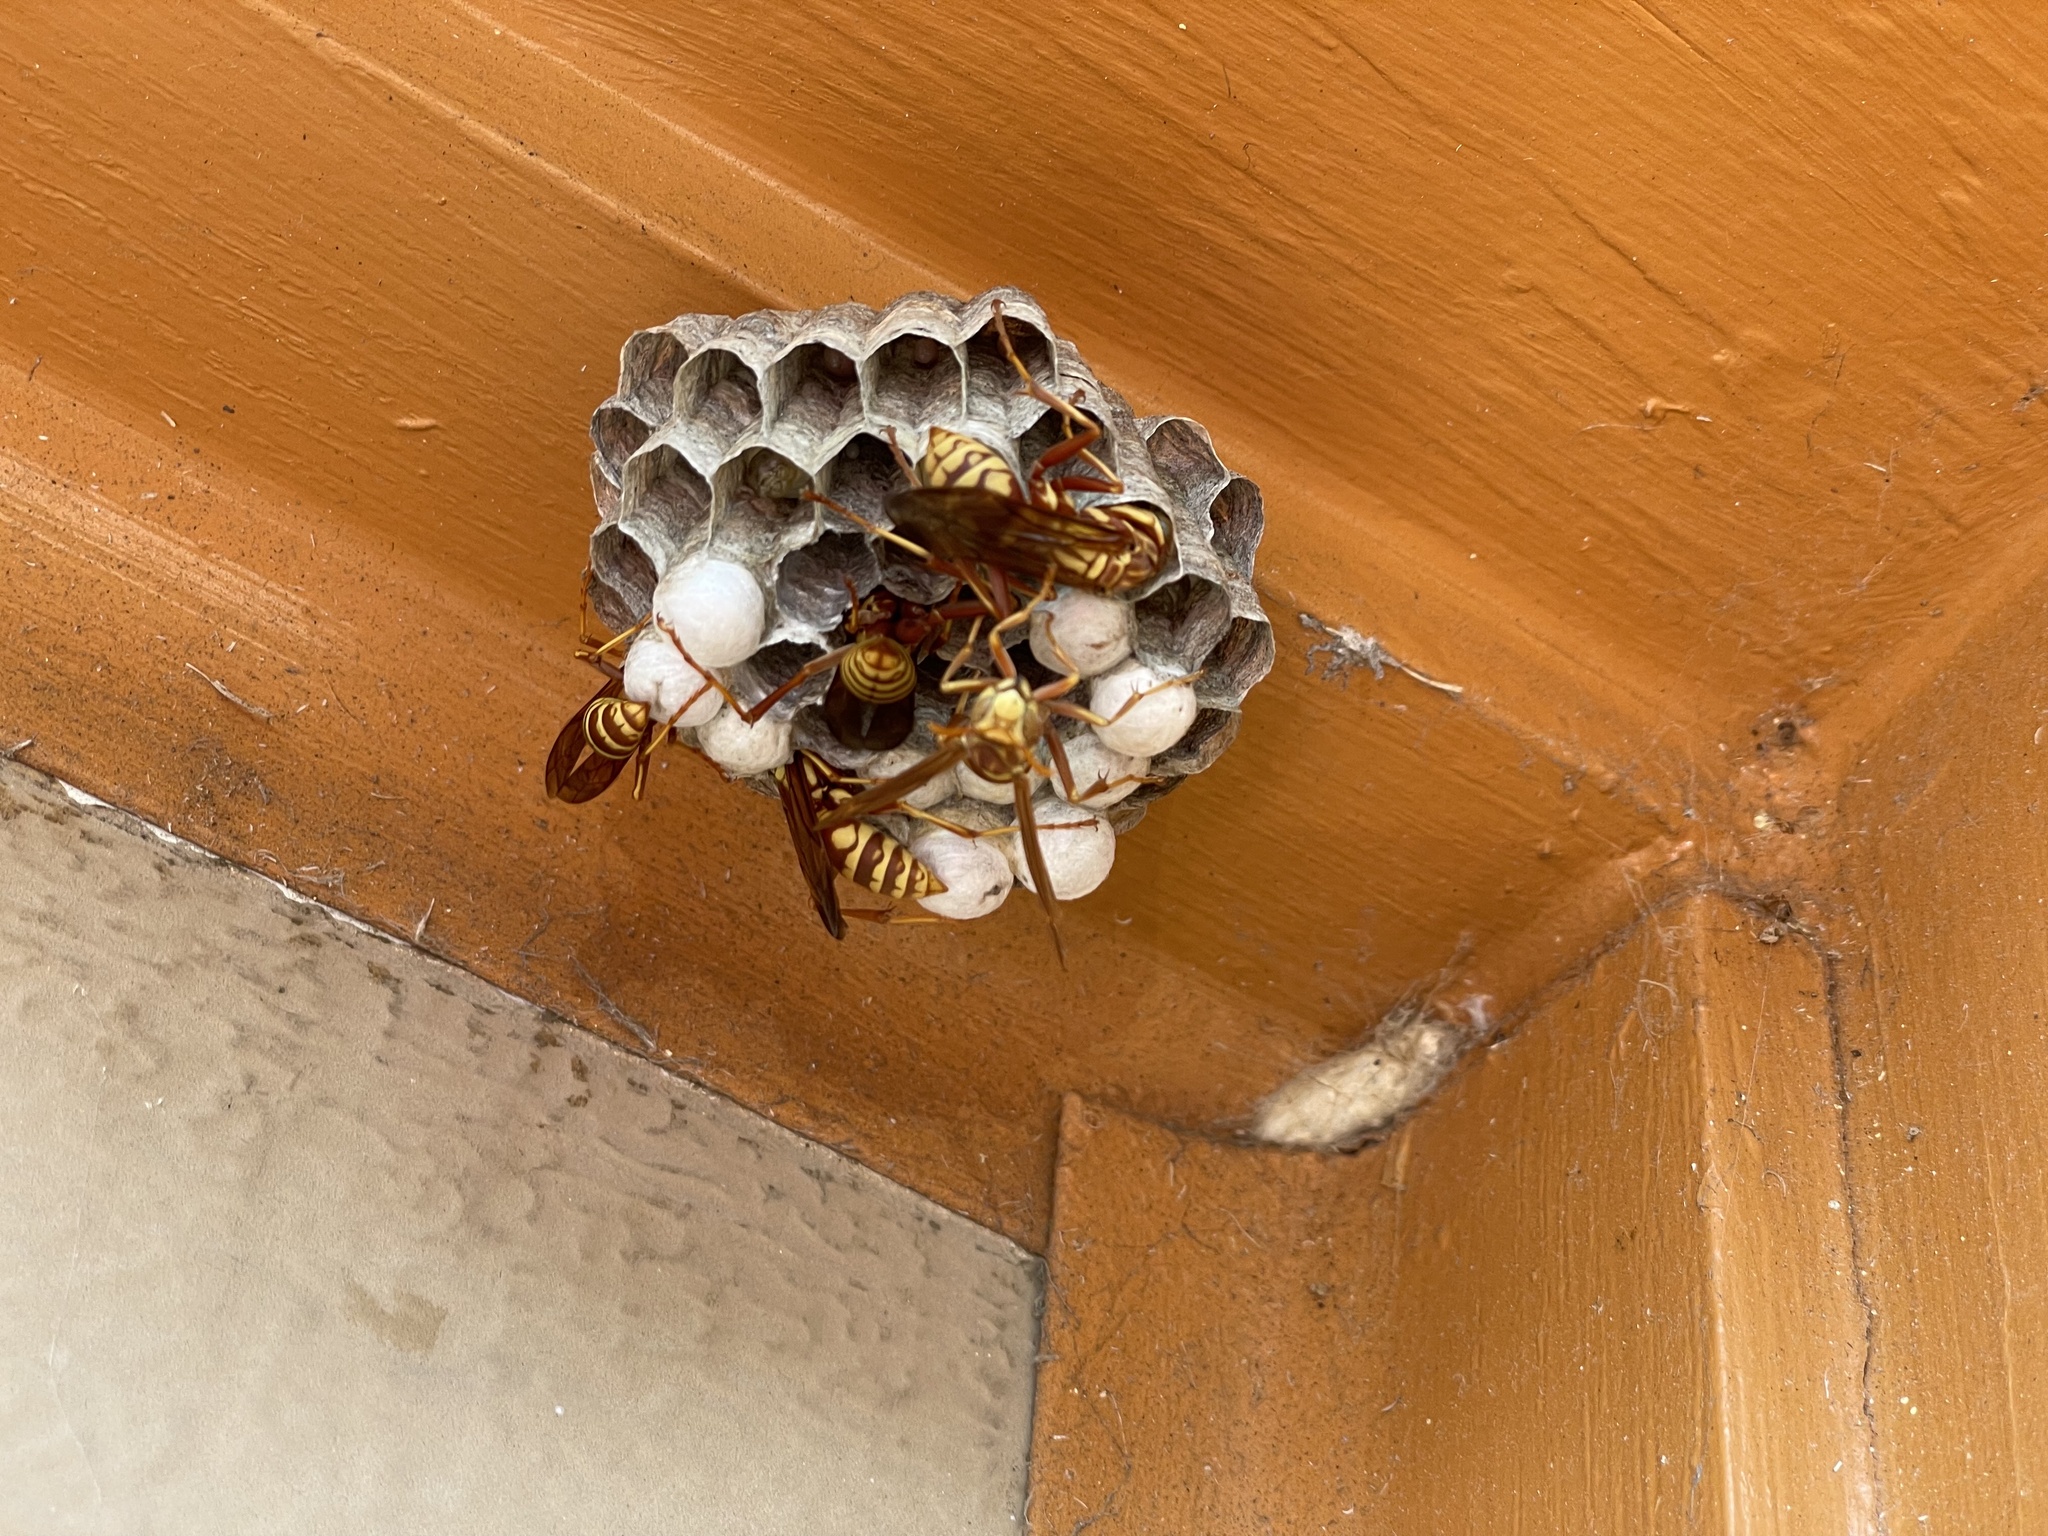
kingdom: Animalia
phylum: Arthropoda
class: Insecta
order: Hymenoptera
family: Eumenidae
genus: Polistes
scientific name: Polistes apachus
